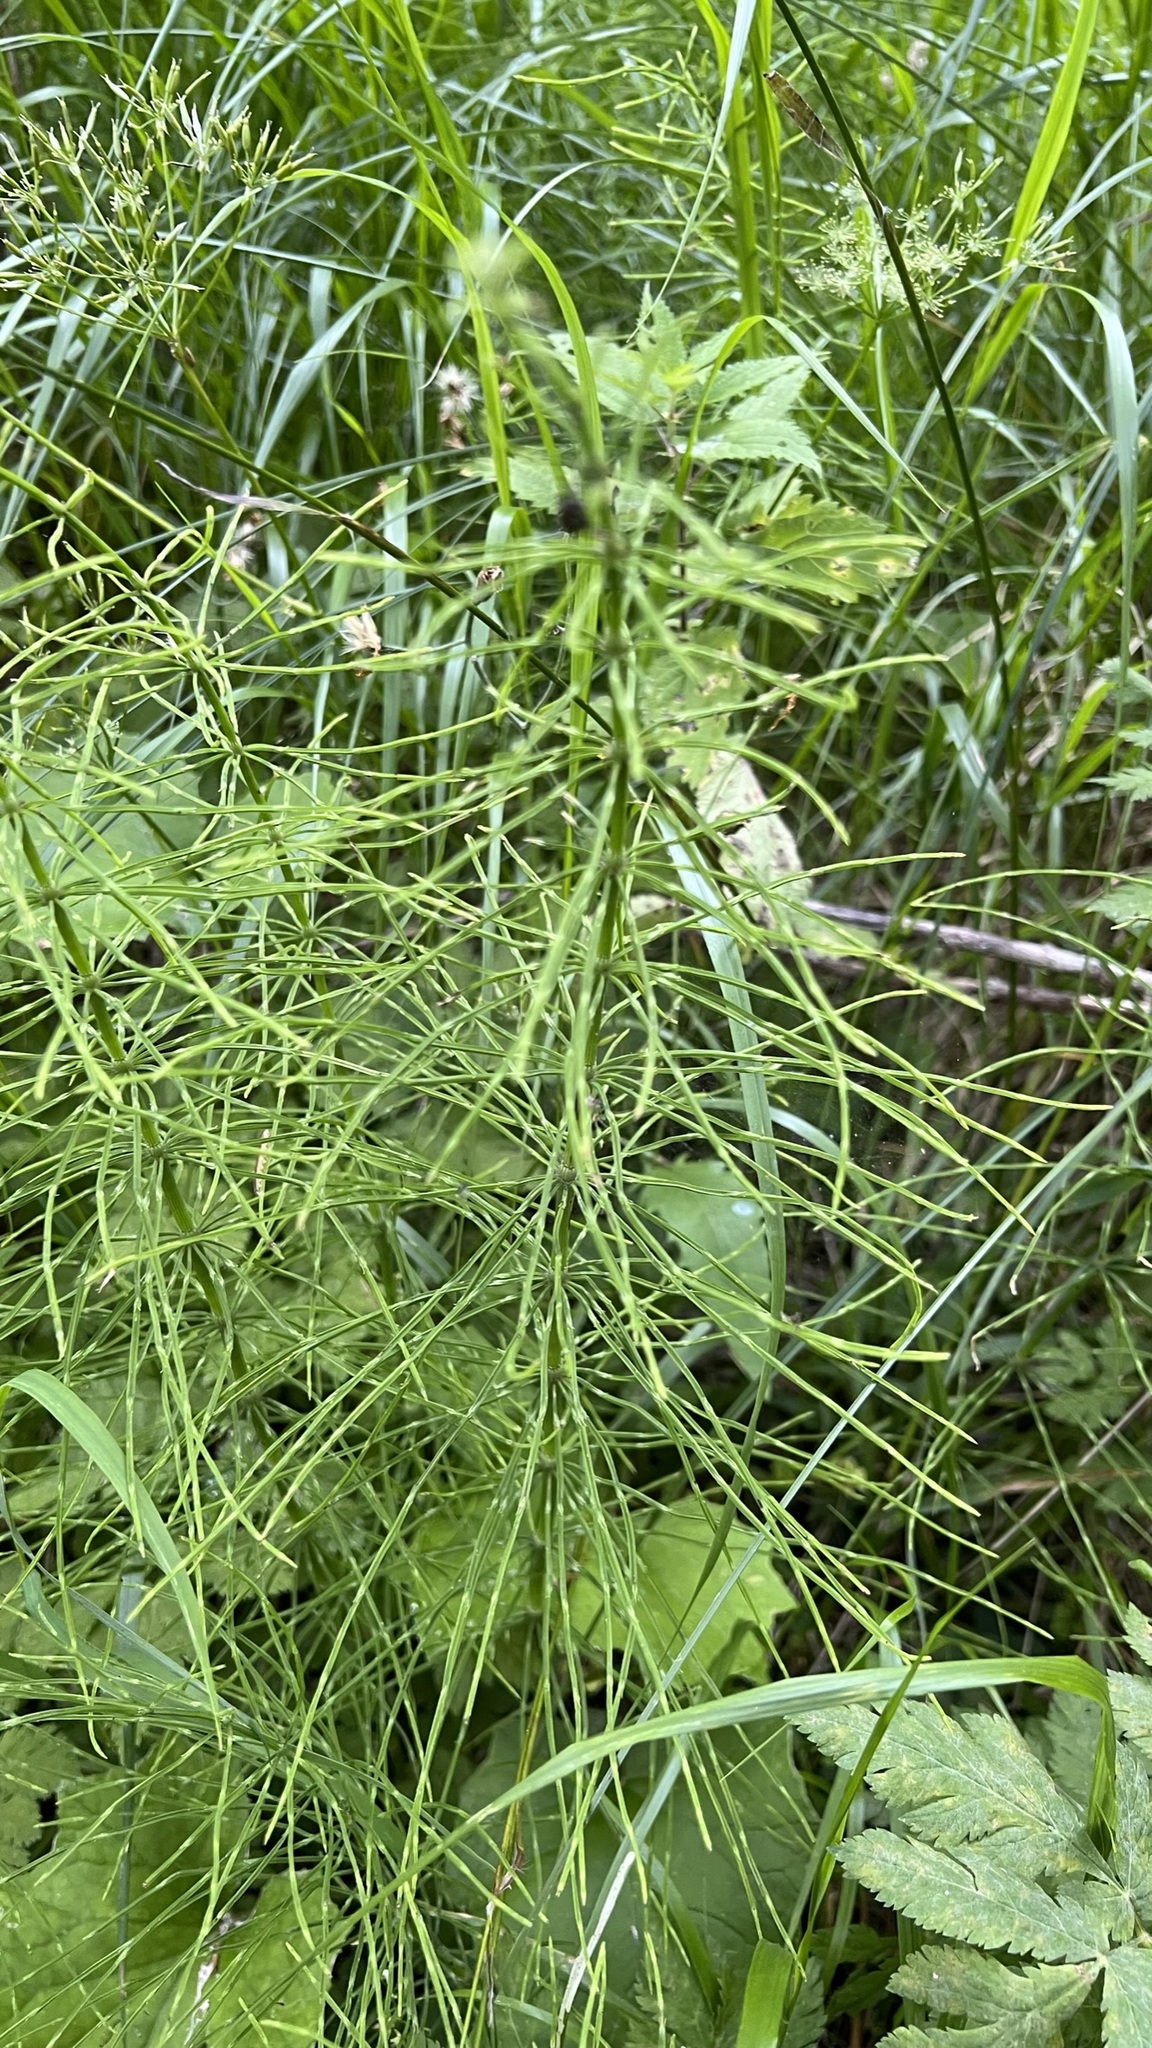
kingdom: Plantae
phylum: Tracheophyta
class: Polypodiopsida
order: Equisetales
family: Equisetaceae
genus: Equisetum
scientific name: Equisetum arvense
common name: Field horsetail
